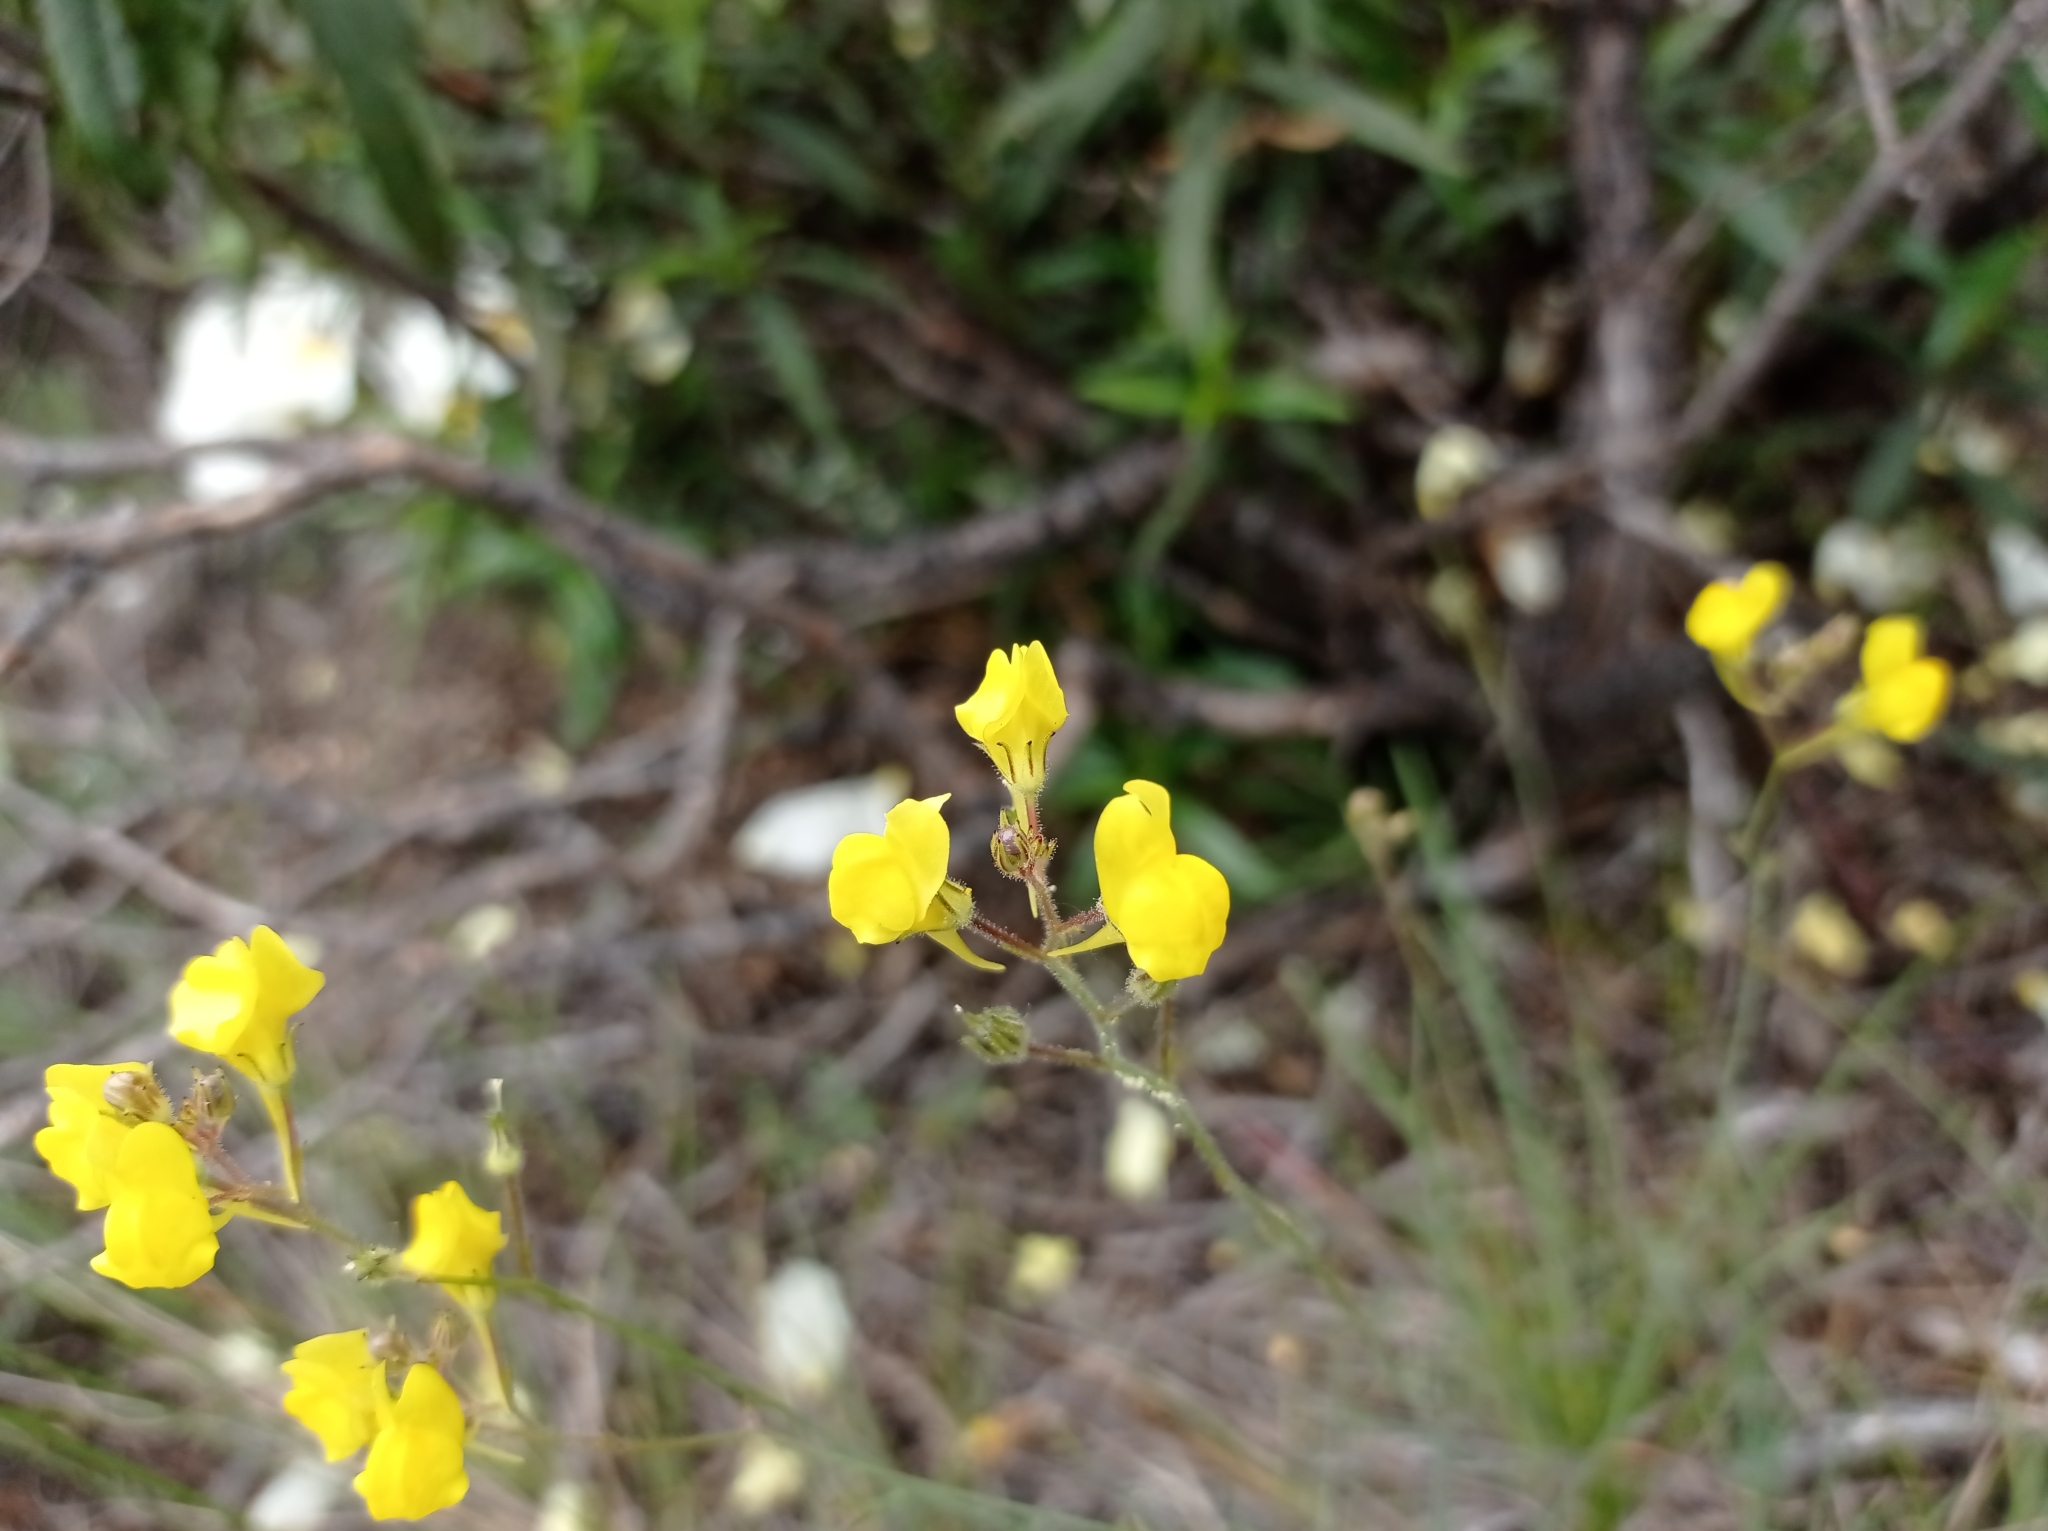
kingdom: Plantae
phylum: Tracheophyta
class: Magnoliopsida
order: Lamiales
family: Plantaginaceae
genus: Linaria
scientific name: Linaria spartea
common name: Ballast toadflax
